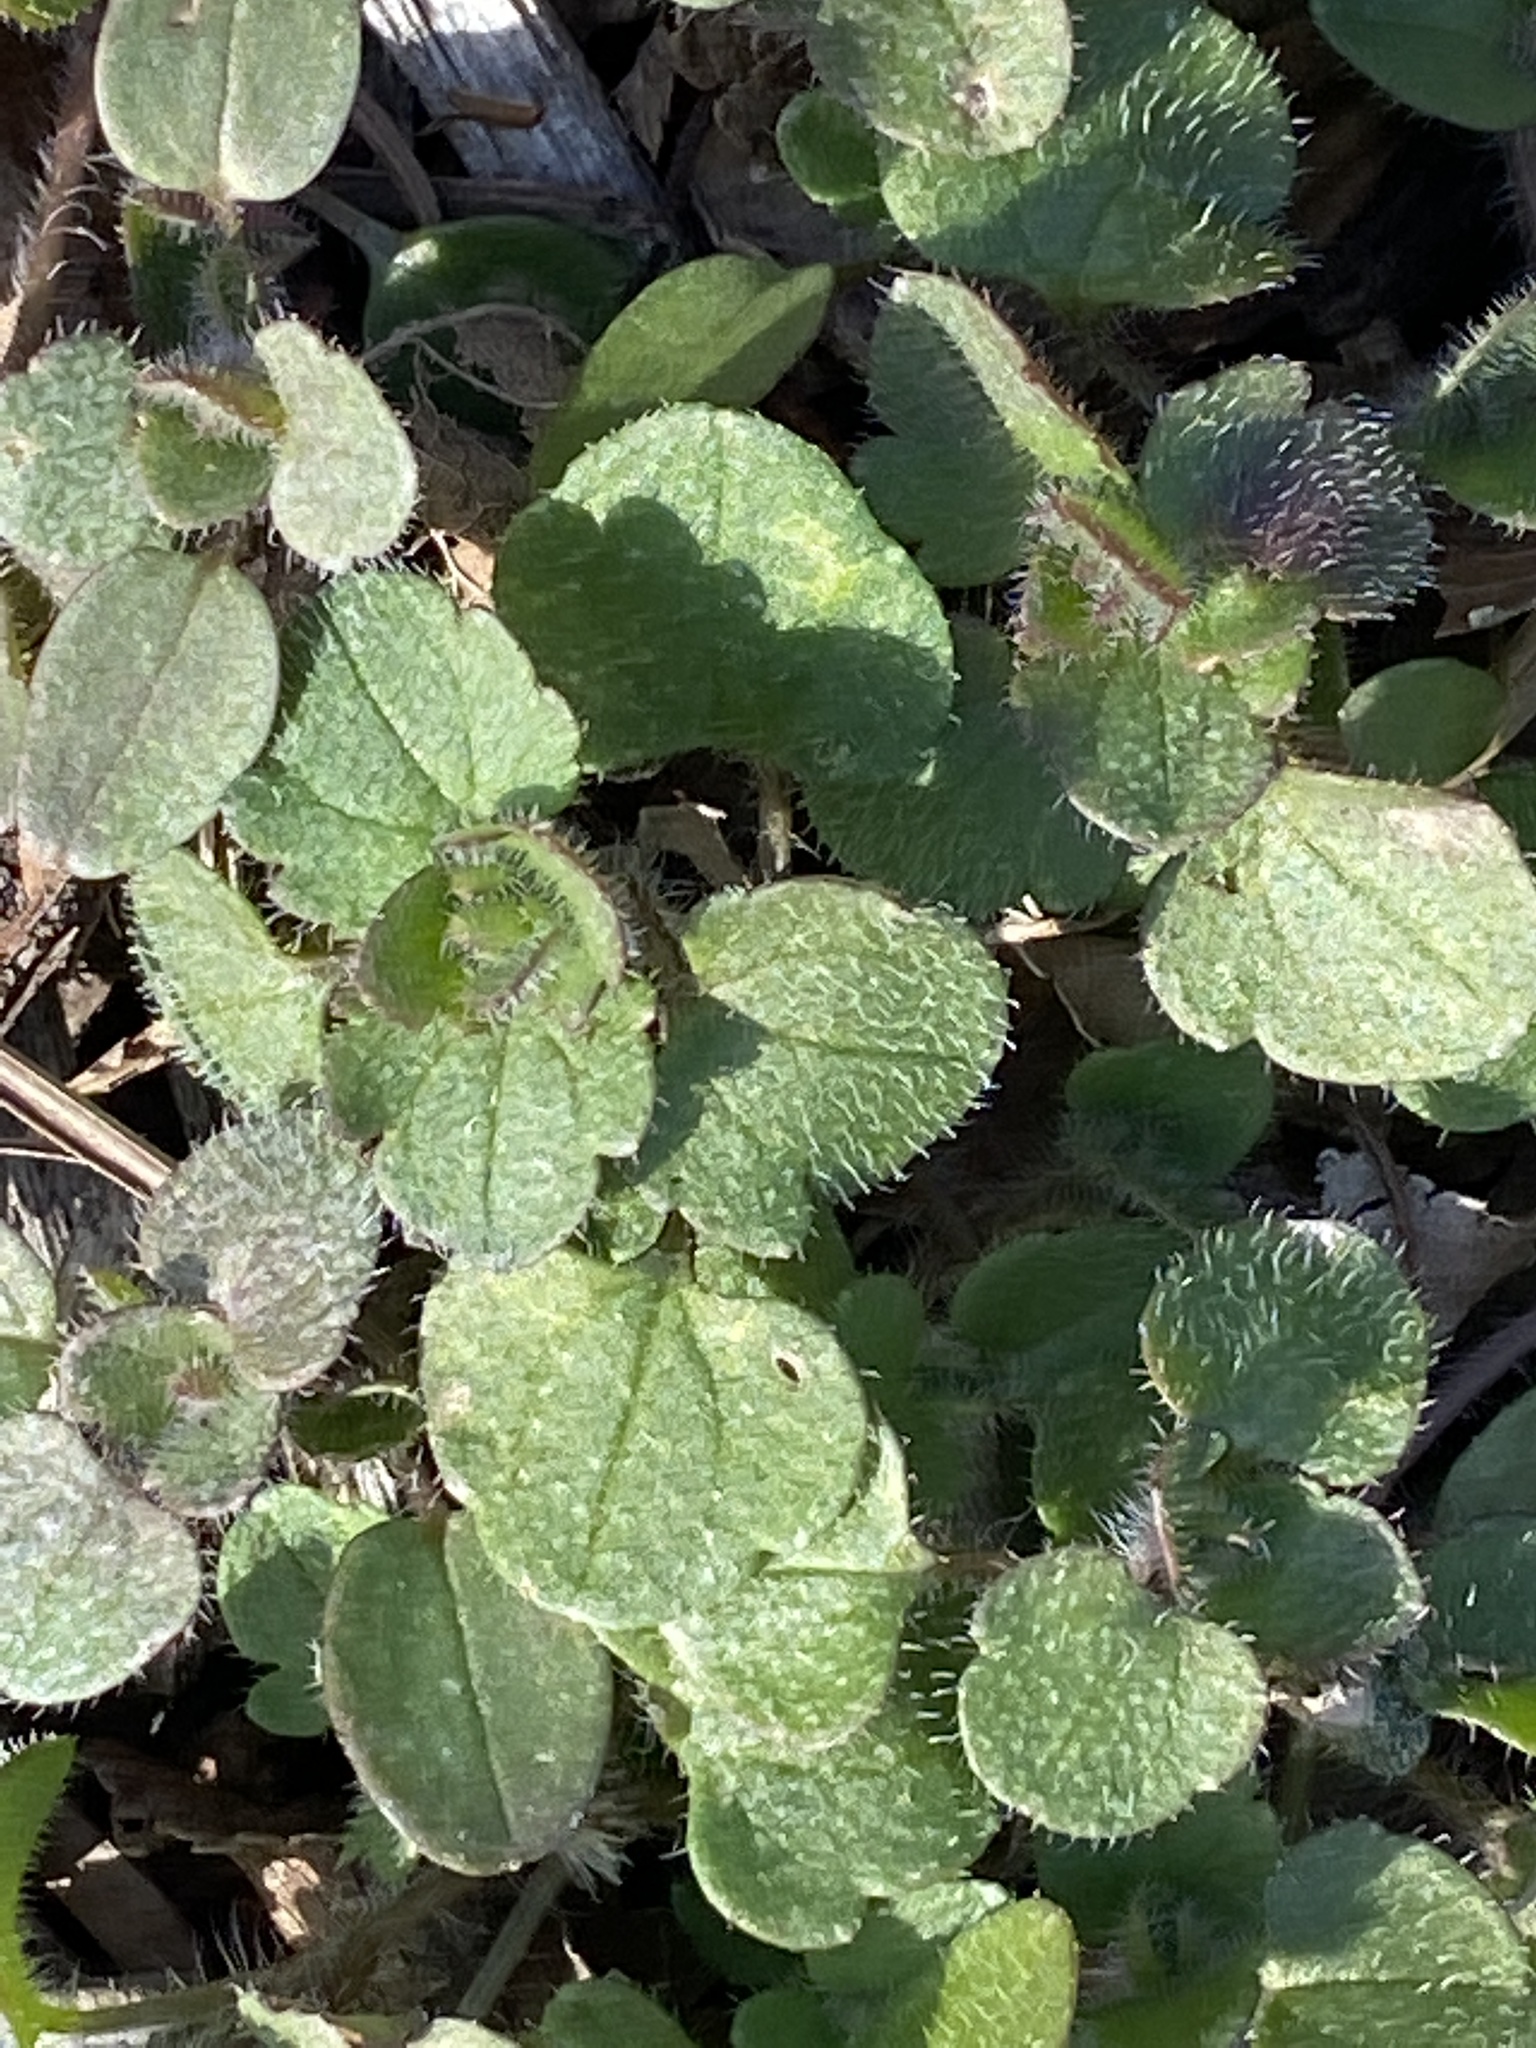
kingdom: Plantae
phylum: Tracheophyta
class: Magnoliopsida
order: Lamiales
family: Plantaginaceae
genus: Veronica
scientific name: Veronica hederifolia
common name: Ivy-leaved speedwell
